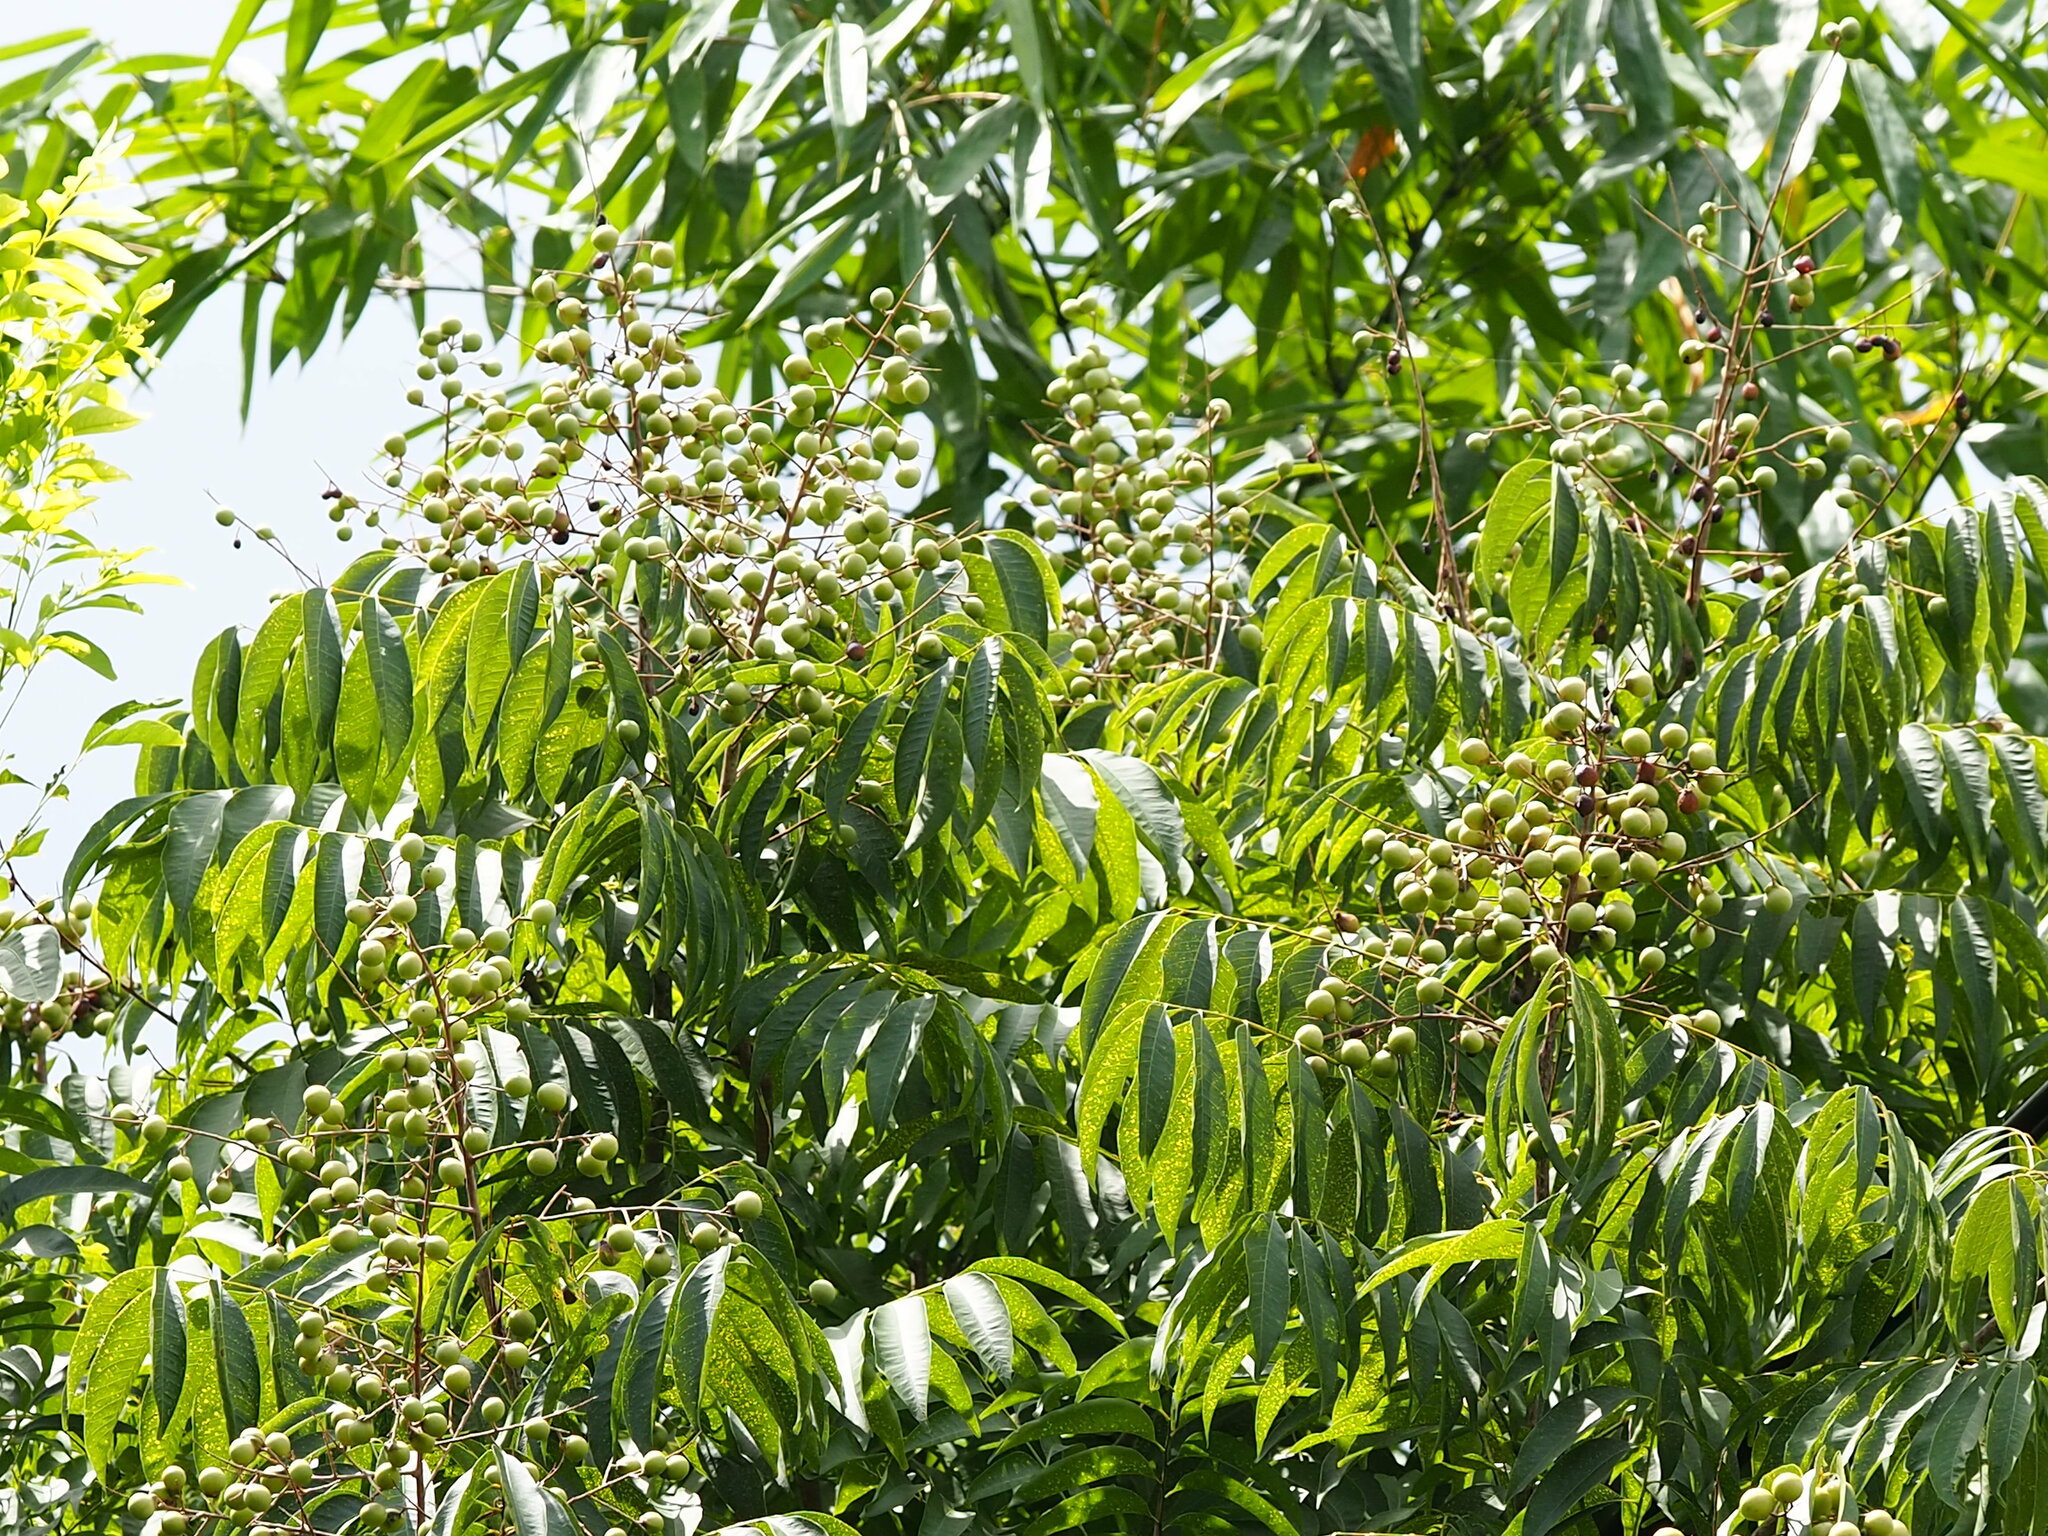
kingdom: Plantae
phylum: Tracheophyta
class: Magnoliopsida
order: Sapindales
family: Sapindaceae
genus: Sapindus
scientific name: Sapindus mukorossi
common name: Chinese soapberry
